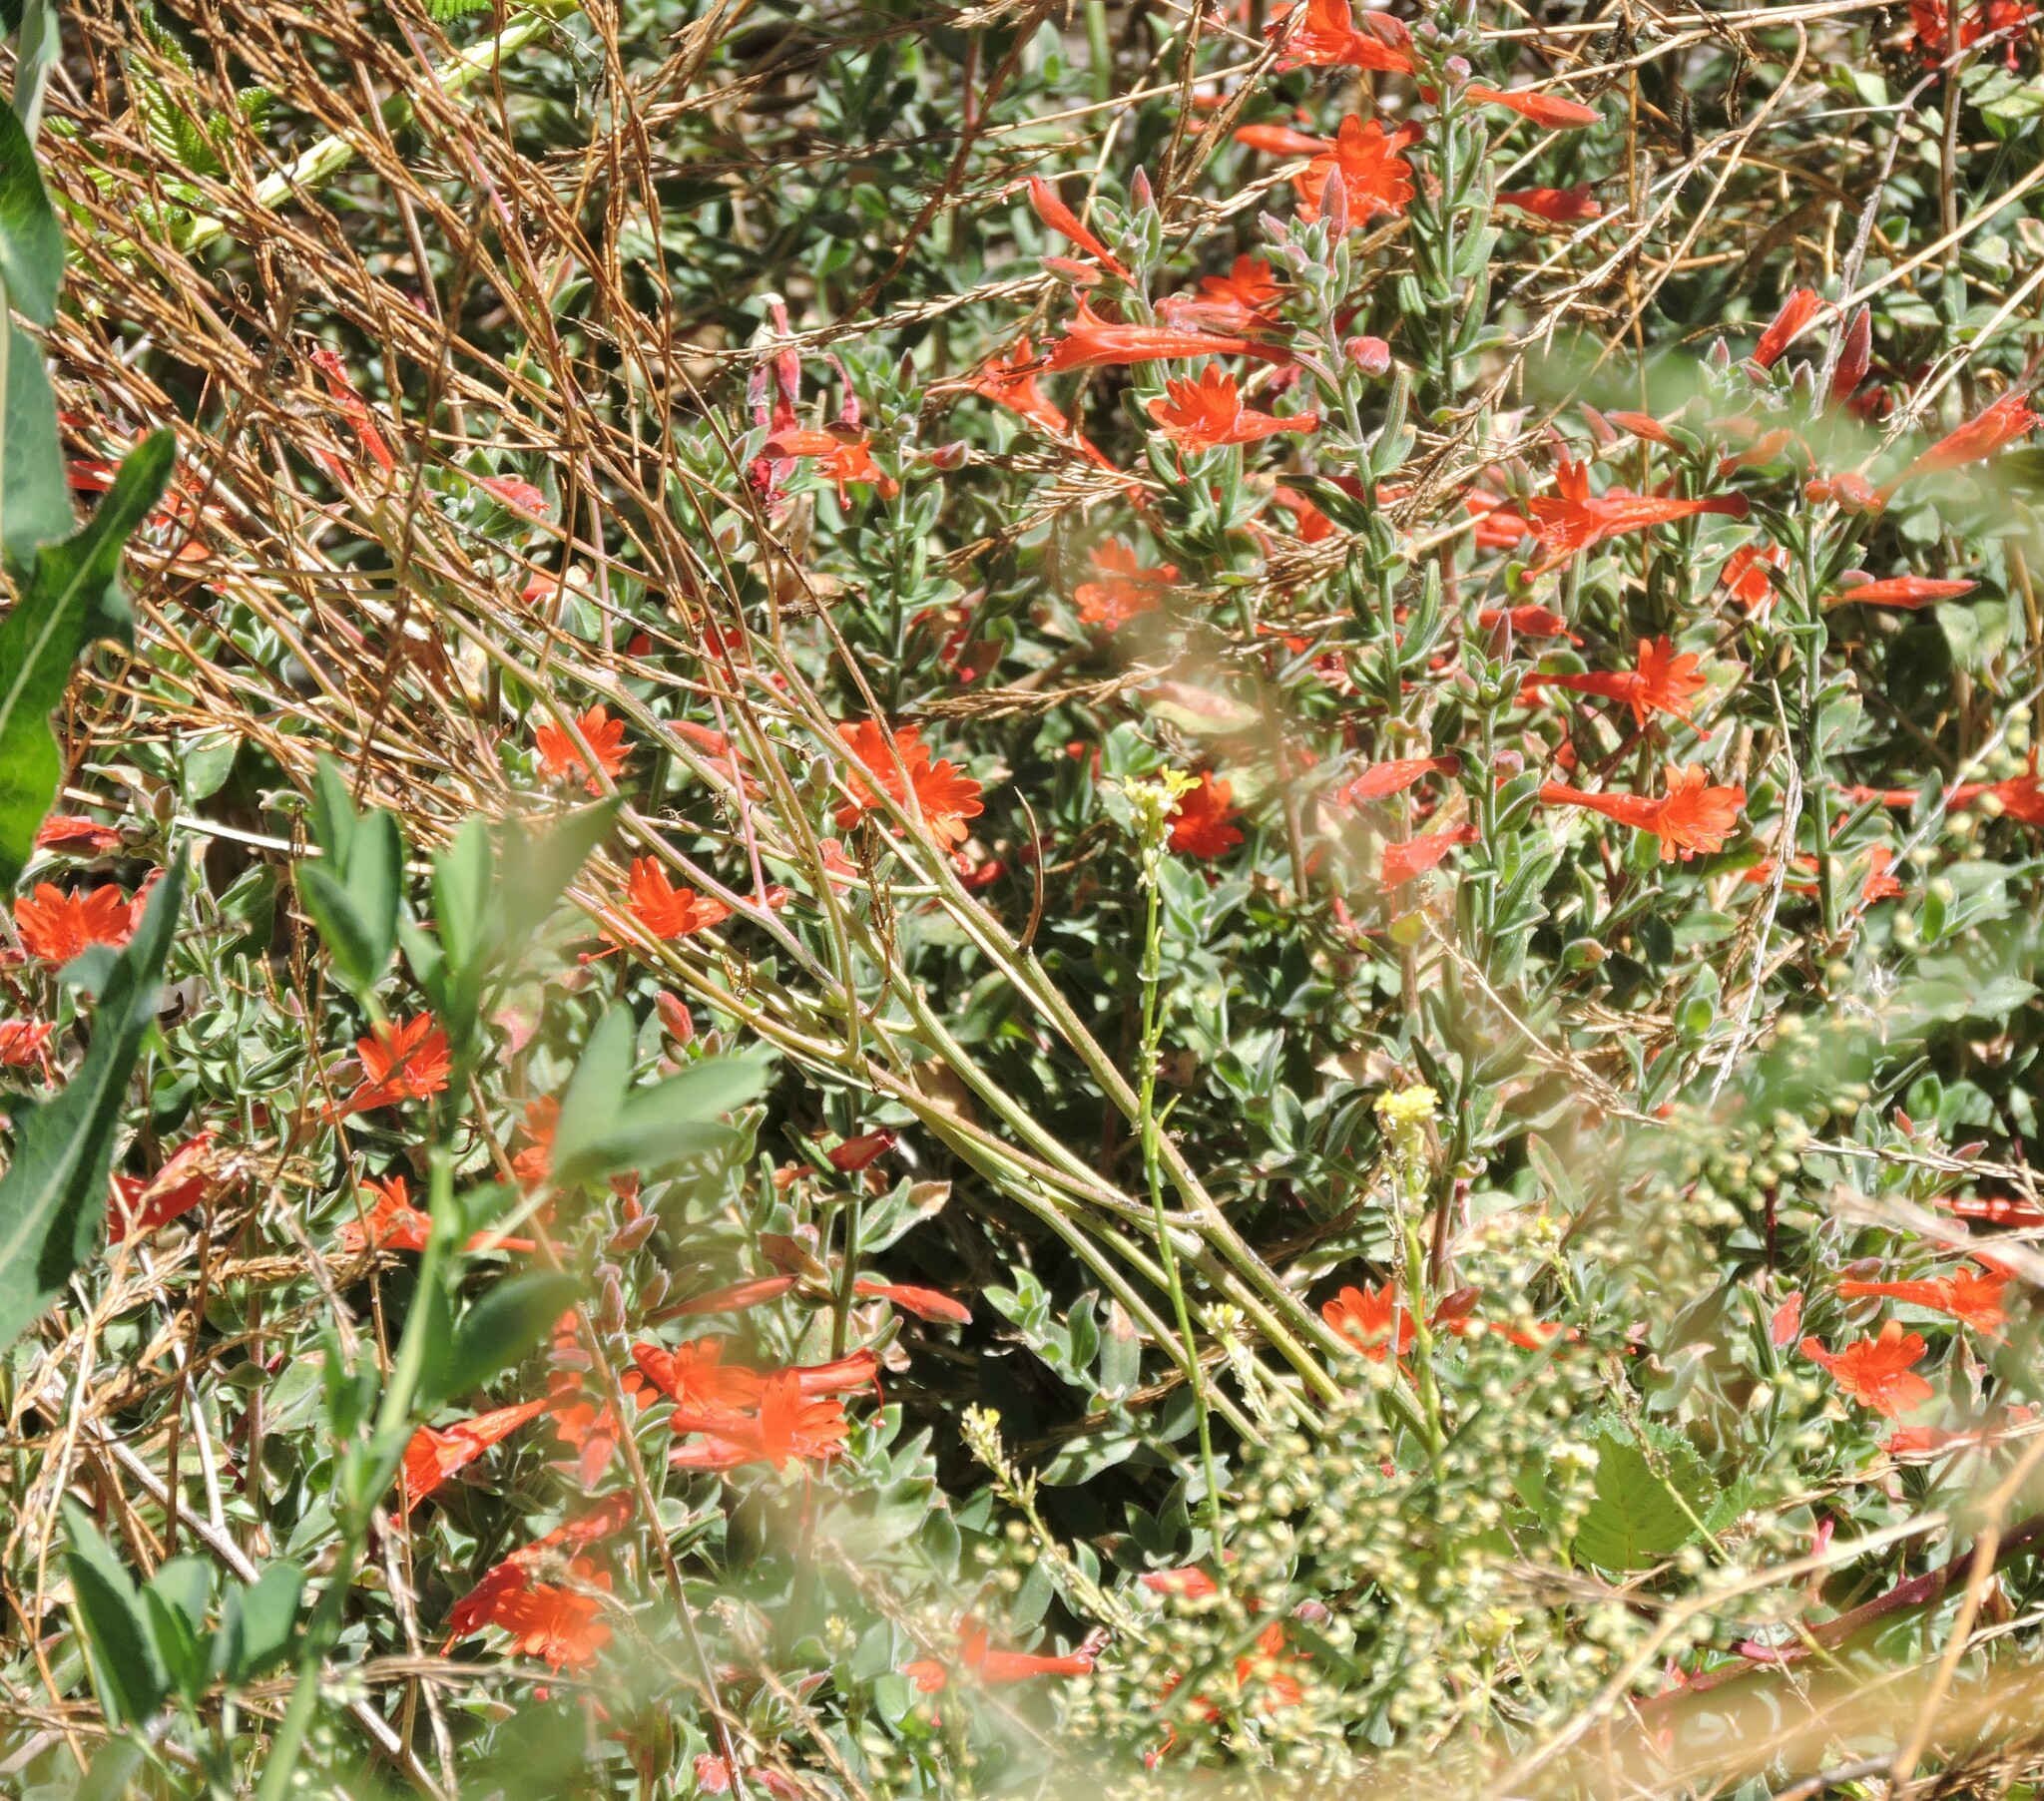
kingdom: Plantae
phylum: Tracheophyta
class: Magnoliopsida
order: Myrtales
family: Onagraceae
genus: Epilobium
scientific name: Epilobium canum
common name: California-fuchsia
